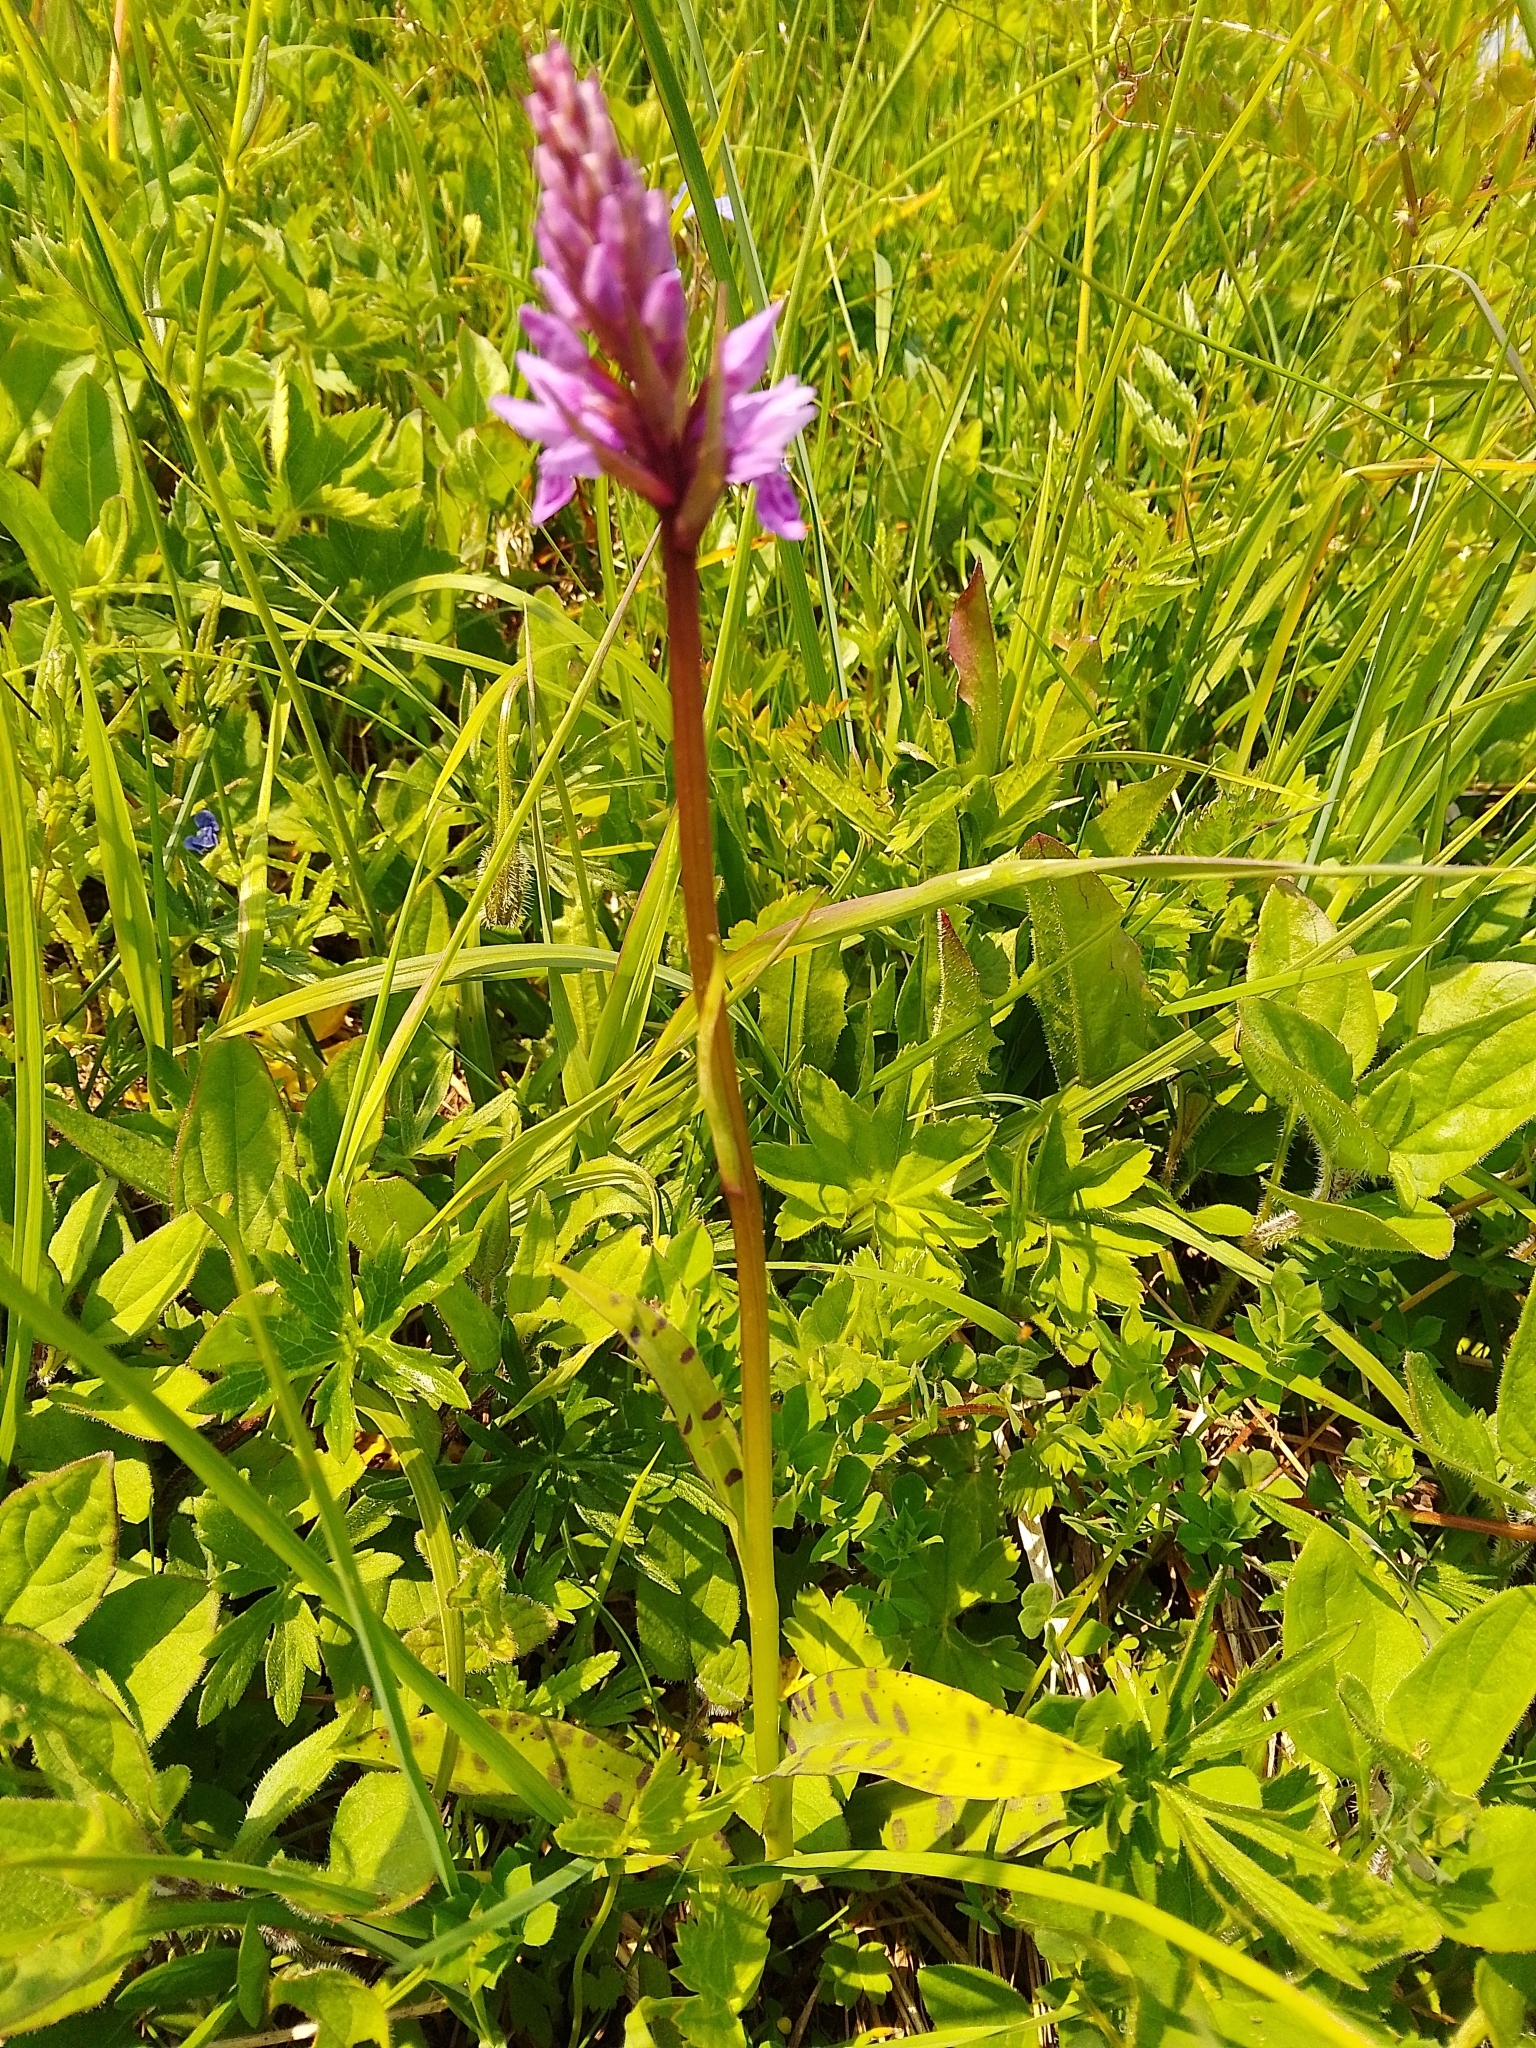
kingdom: Plantae
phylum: Tracheophyta
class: Liliopsida
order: Asparagales
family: Orchidaceae
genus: Dactylorhiza
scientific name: Dactylorhiza maculata
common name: Heath spotted-orchid
